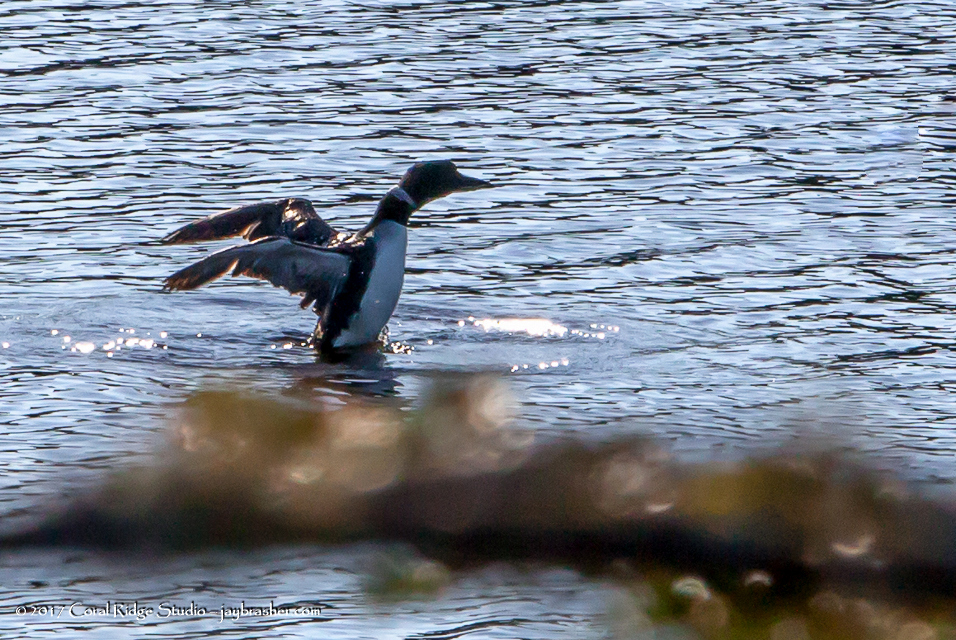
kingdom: Animalia
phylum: Chordata
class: Aves
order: Gaviiformes
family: Gaviidae
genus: Gavia
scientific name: Gavia immer
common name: Common loon
